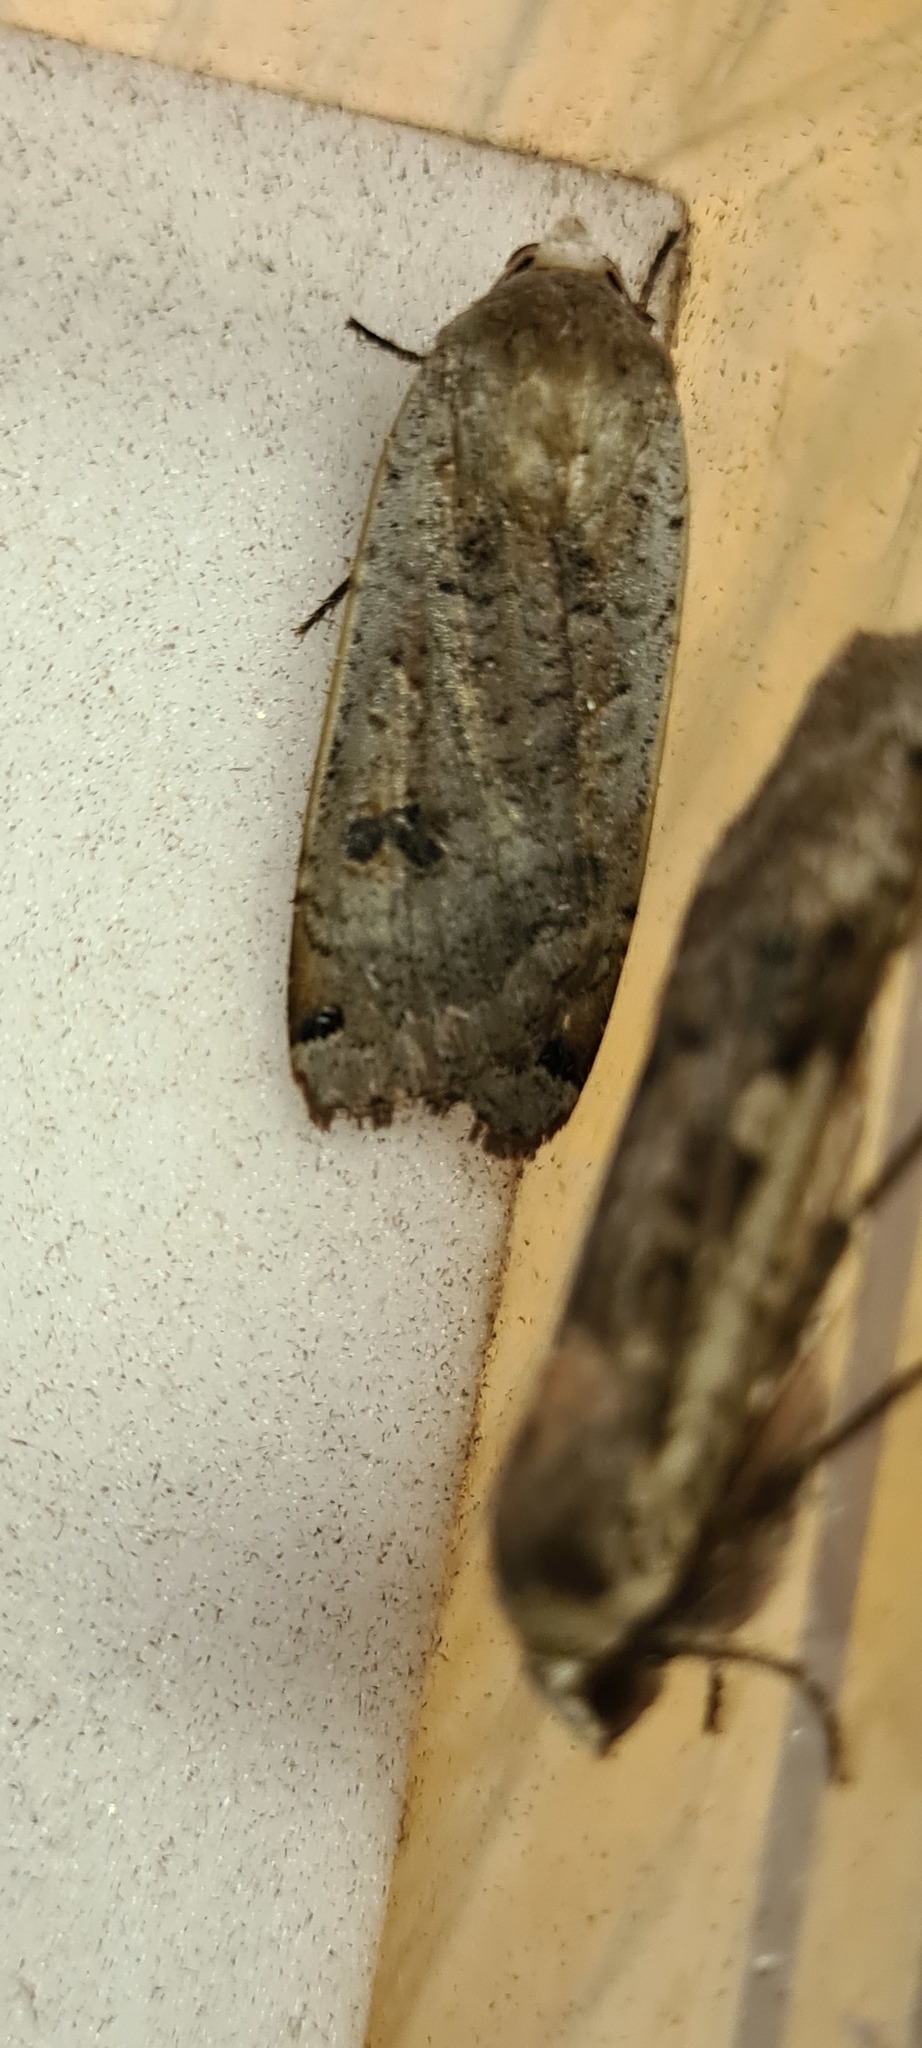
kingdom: Animalia
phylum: Arthropoda
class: Insecta
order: Lepidoptera
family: Noctuidae
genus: Noctua
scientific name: Noctua pronuba
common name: Large yellow underwing
